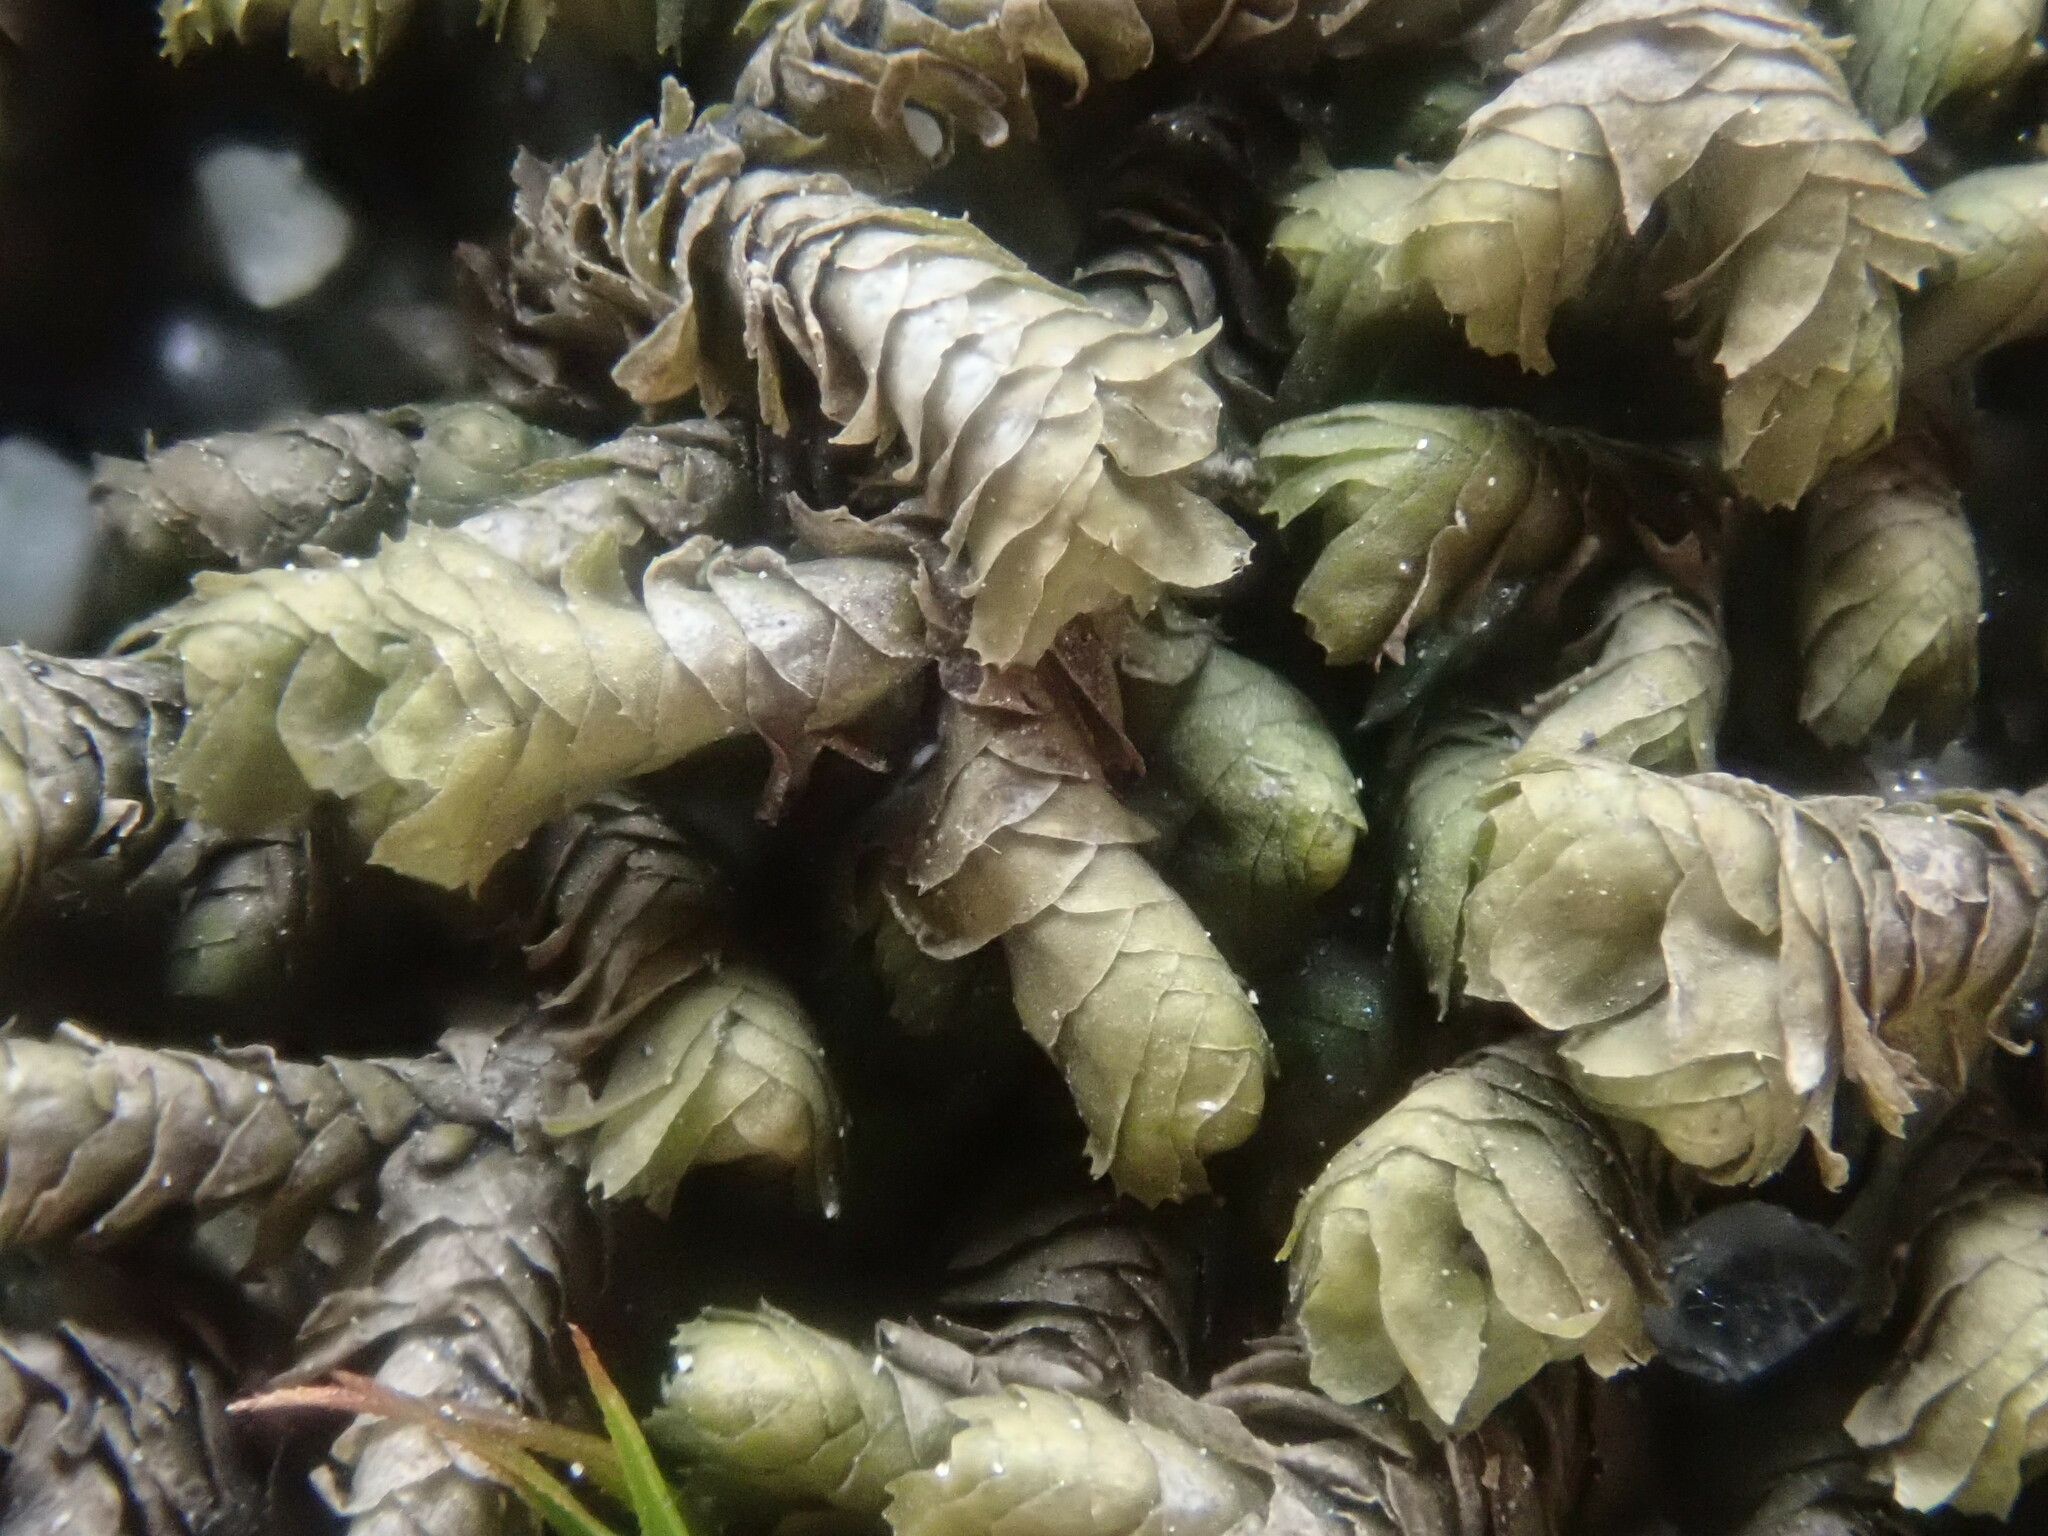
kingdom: Plantae
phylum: Marchantiophyta
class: Jungermanniopsida
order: Jungermanniales
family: Lepidoziaceae
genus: Bazzania
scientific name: Bazzania trilobata
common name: Three-lobed whipwort
